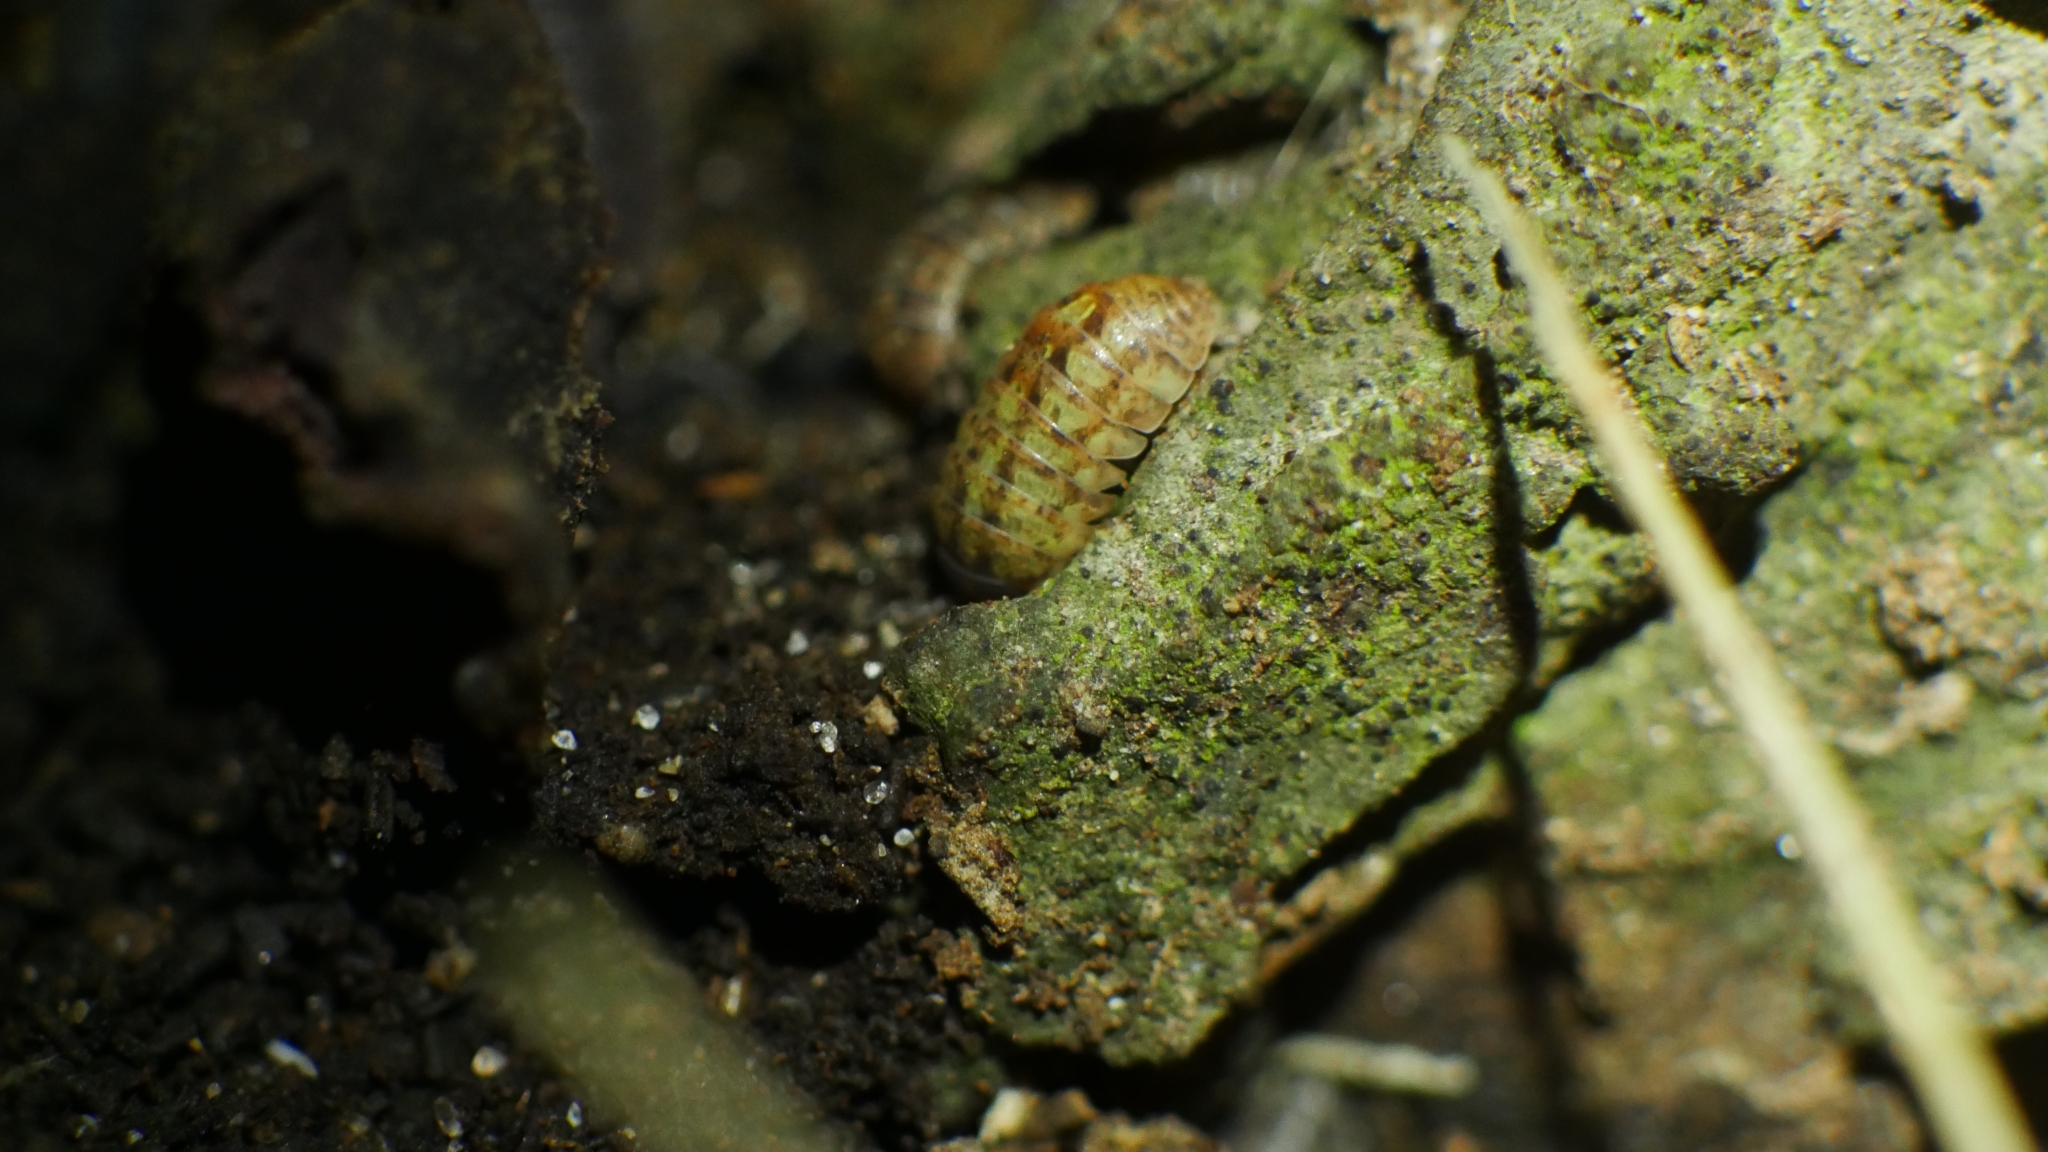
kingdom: Animalia
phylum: Arthropoda
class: Malacostraca
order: Isopoda
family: Armadillidiidae
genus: Armadillidium
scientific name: Armadillidium vulgare
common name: Common pill woodlouse
